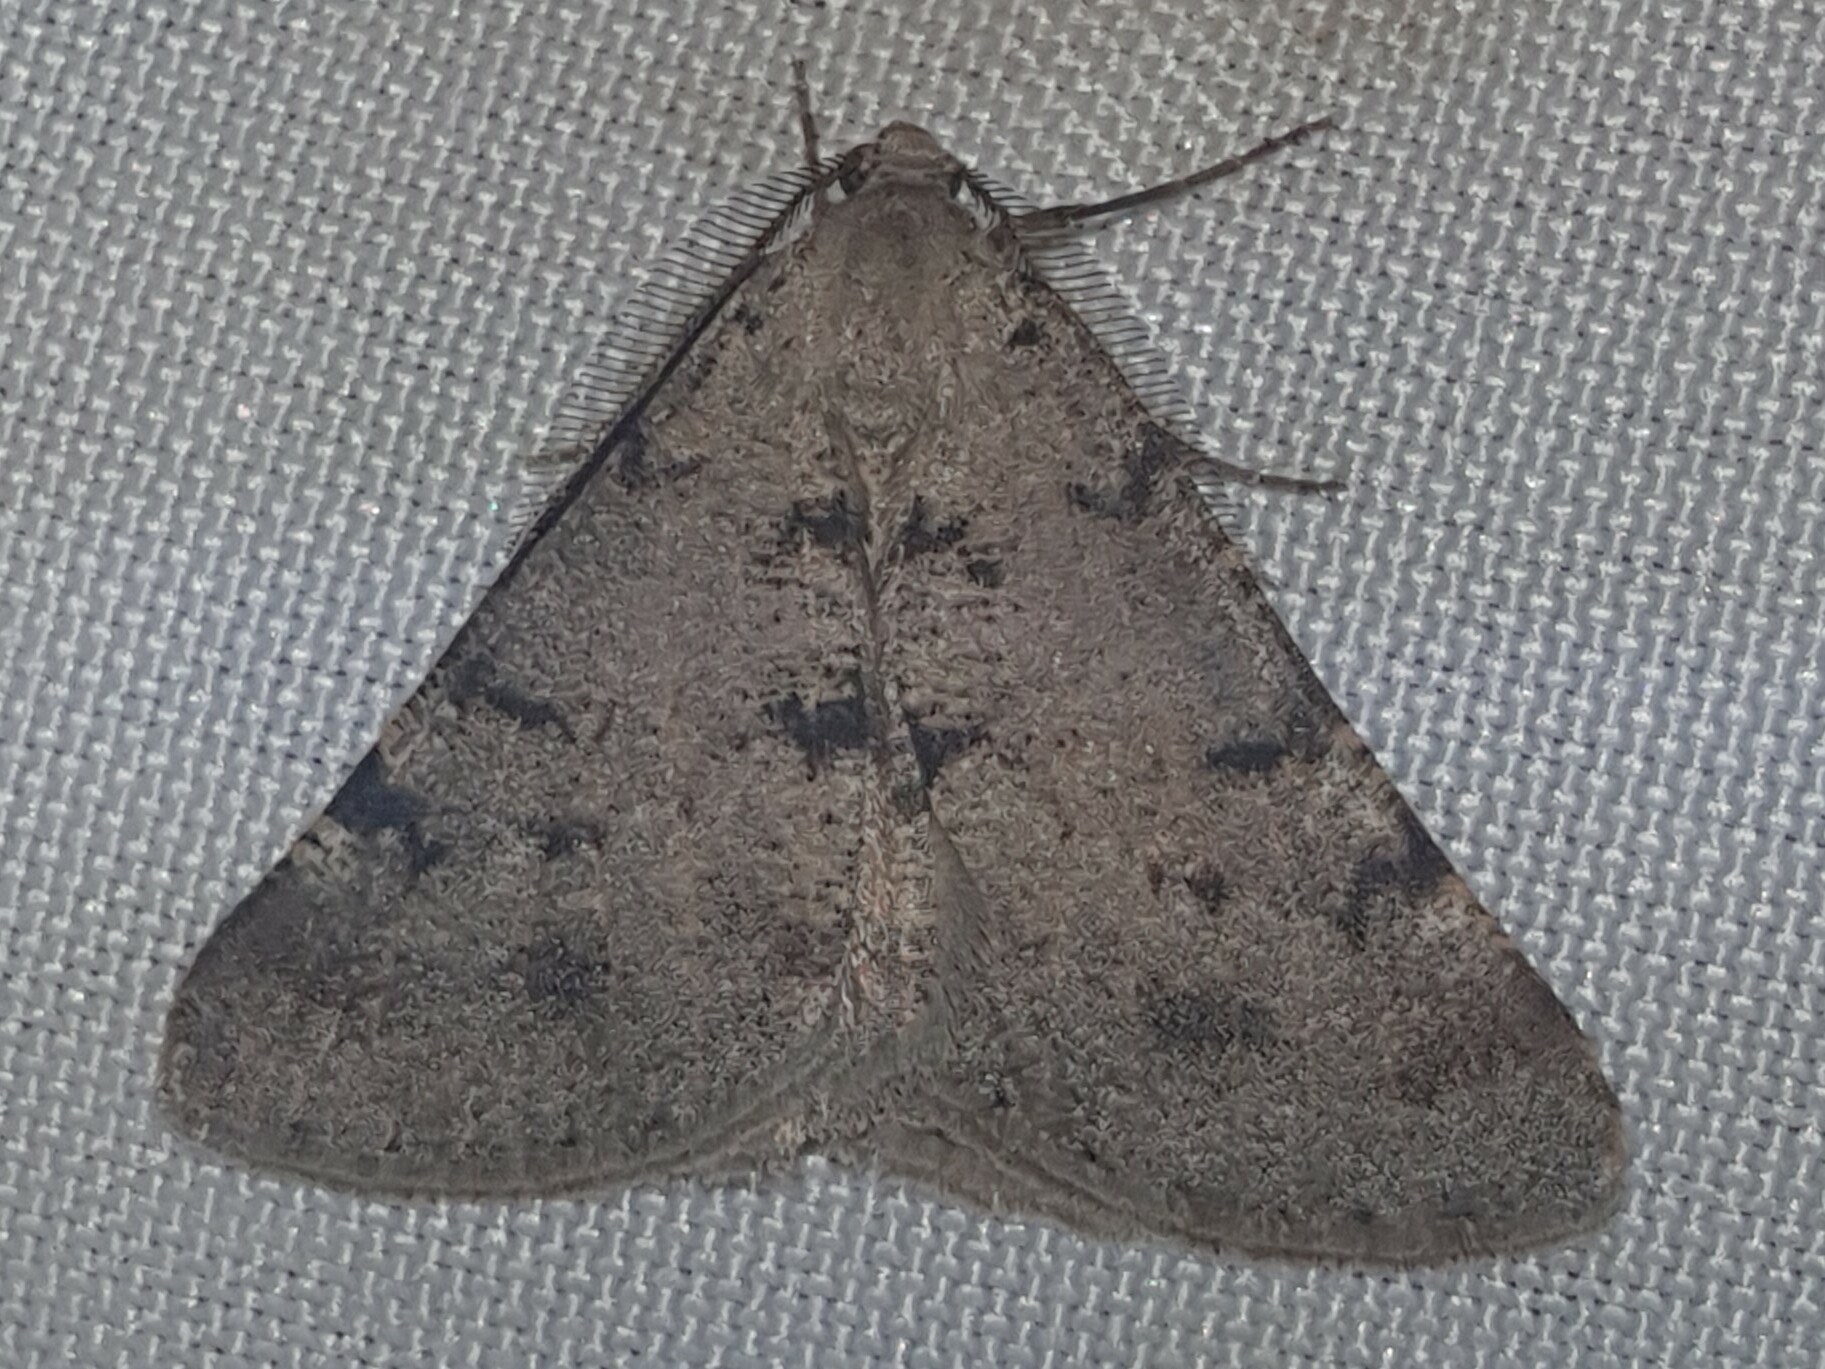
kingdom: Animalia
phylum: Arthropoda
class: Insecta
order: Lepidoptera
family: Geometridae
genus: Isturgia
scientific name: Isturgia miniosaria
